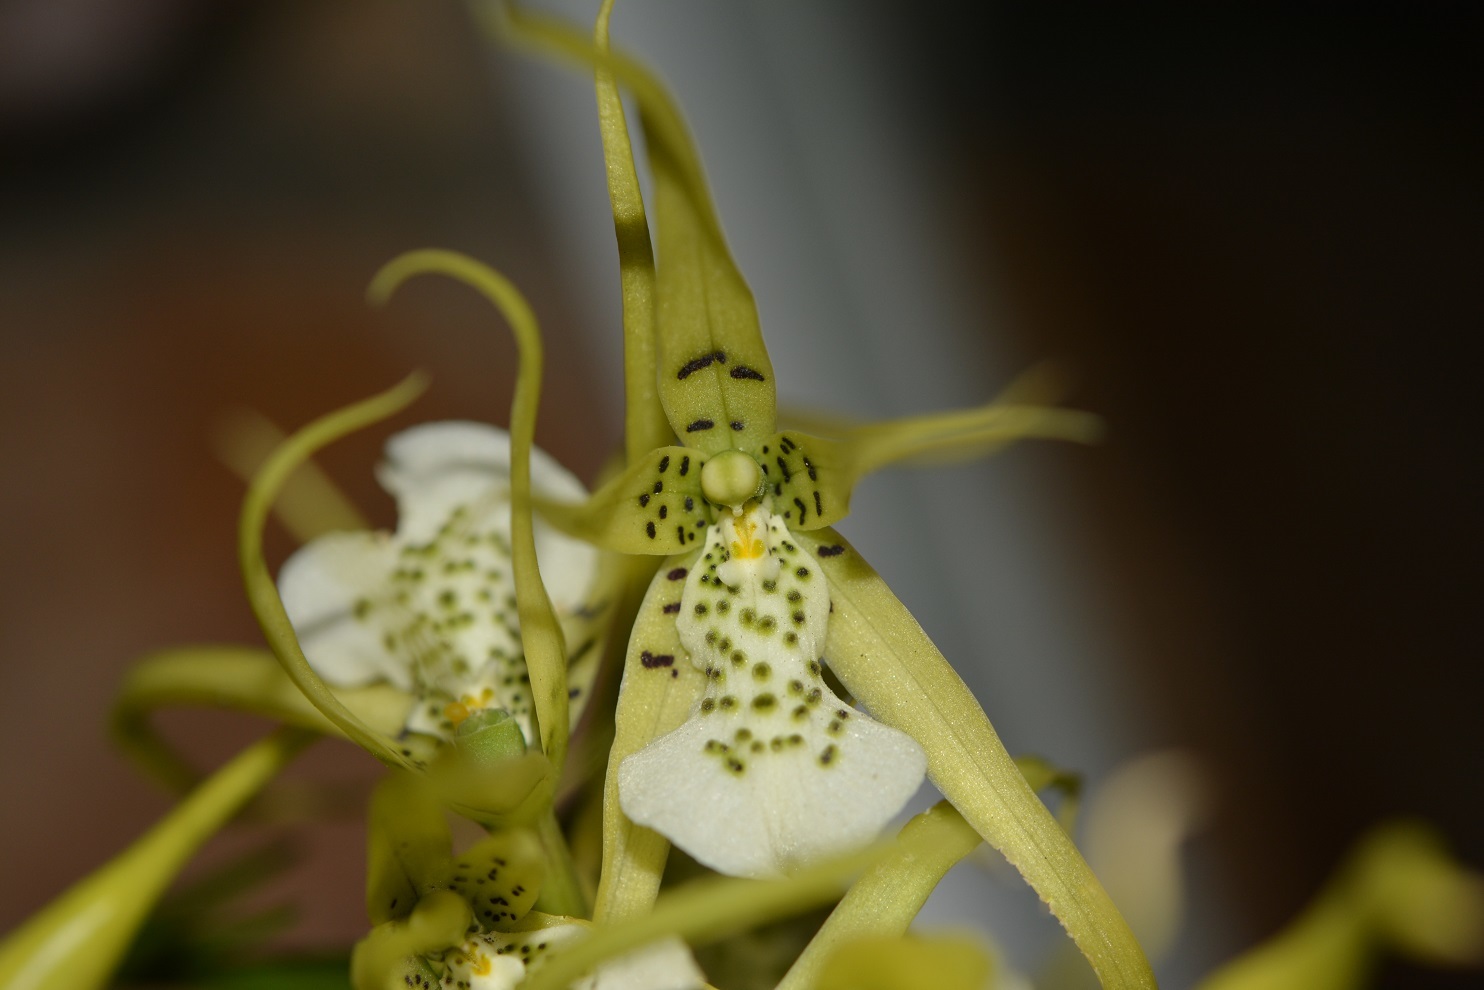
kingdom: Plantae
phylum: Tracheophyta
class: Liliopsida
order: Asparagales
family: Orchidaceae
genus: Brassia
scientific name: Brassia verrucosa
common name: Warty brassia
